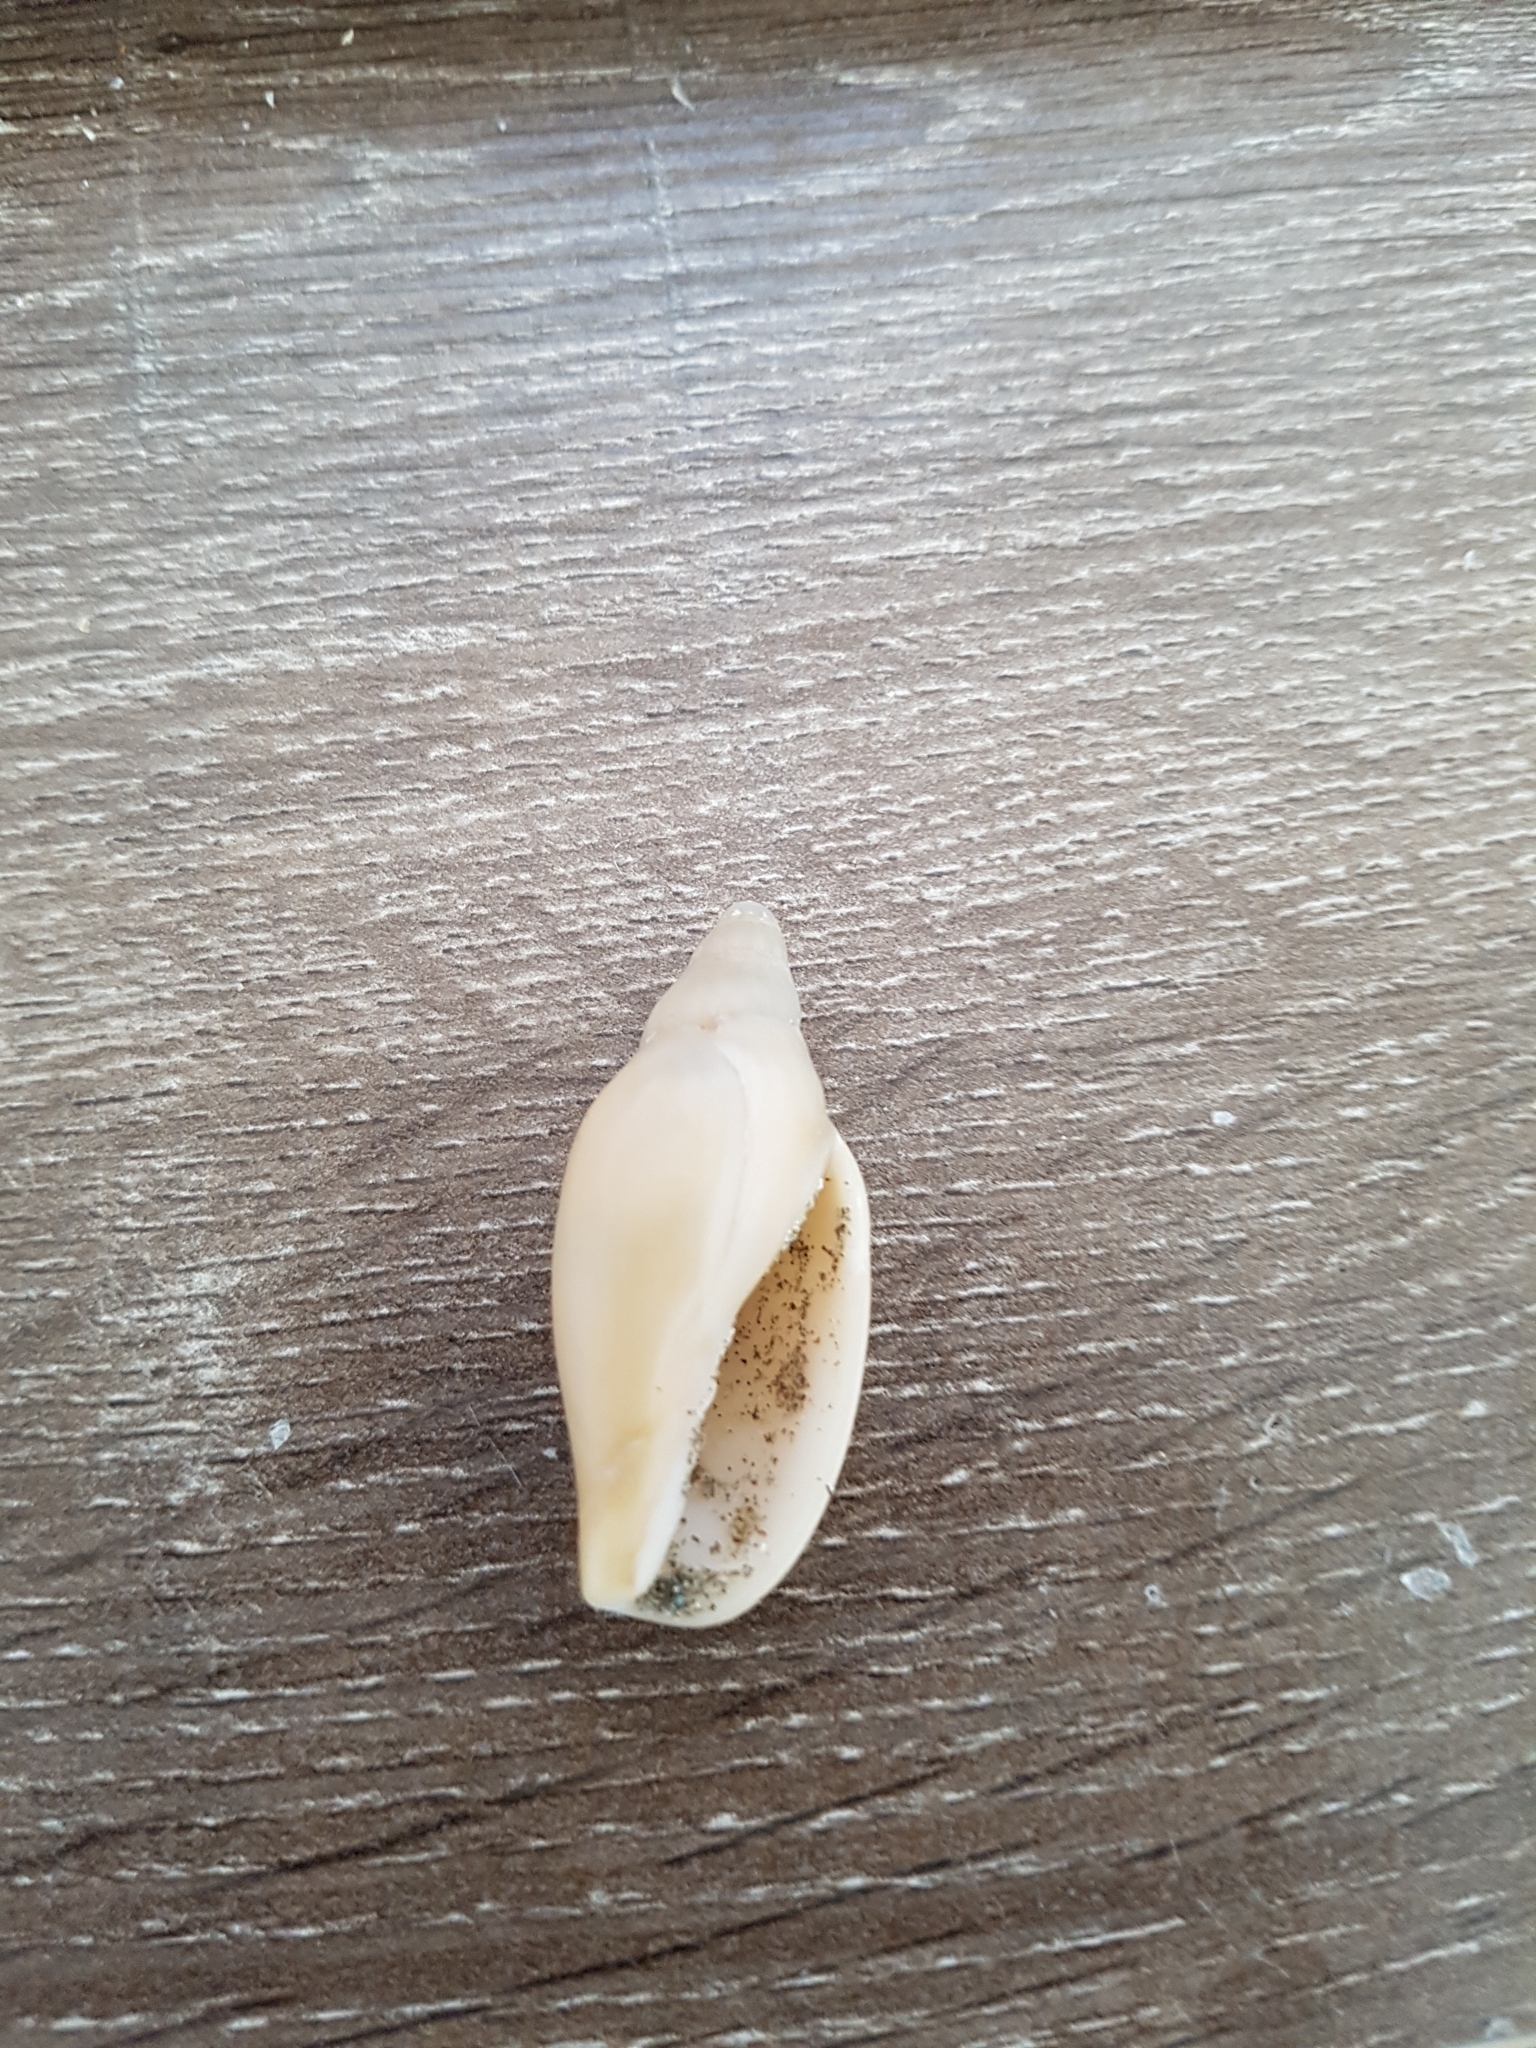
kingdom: Animalia
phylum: Mollusca
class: Gastropoda
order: Neogastropoda
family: Volutidae
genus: Alcithoe
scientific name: Alcithoe fusus
